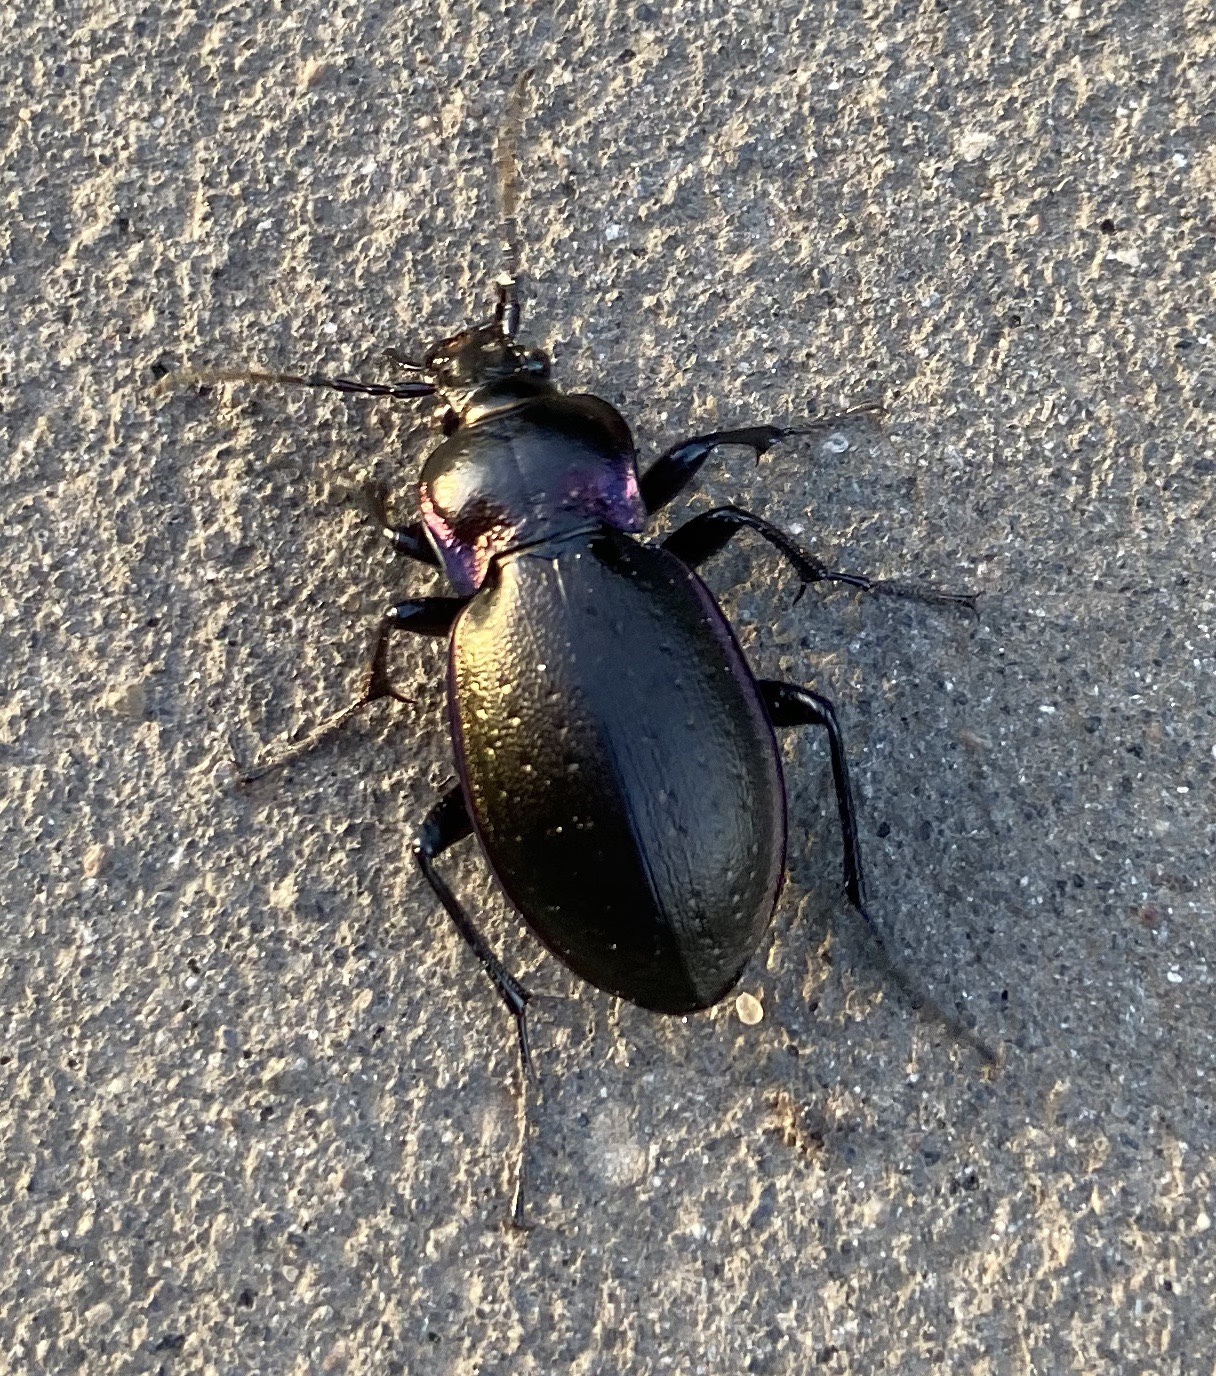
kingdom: Animalia
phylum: Arthropoda
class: Insecta
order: Coleoptera
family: Carabidae
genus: Carabus
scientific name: Carabus nemoralis
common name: European ground beetle
